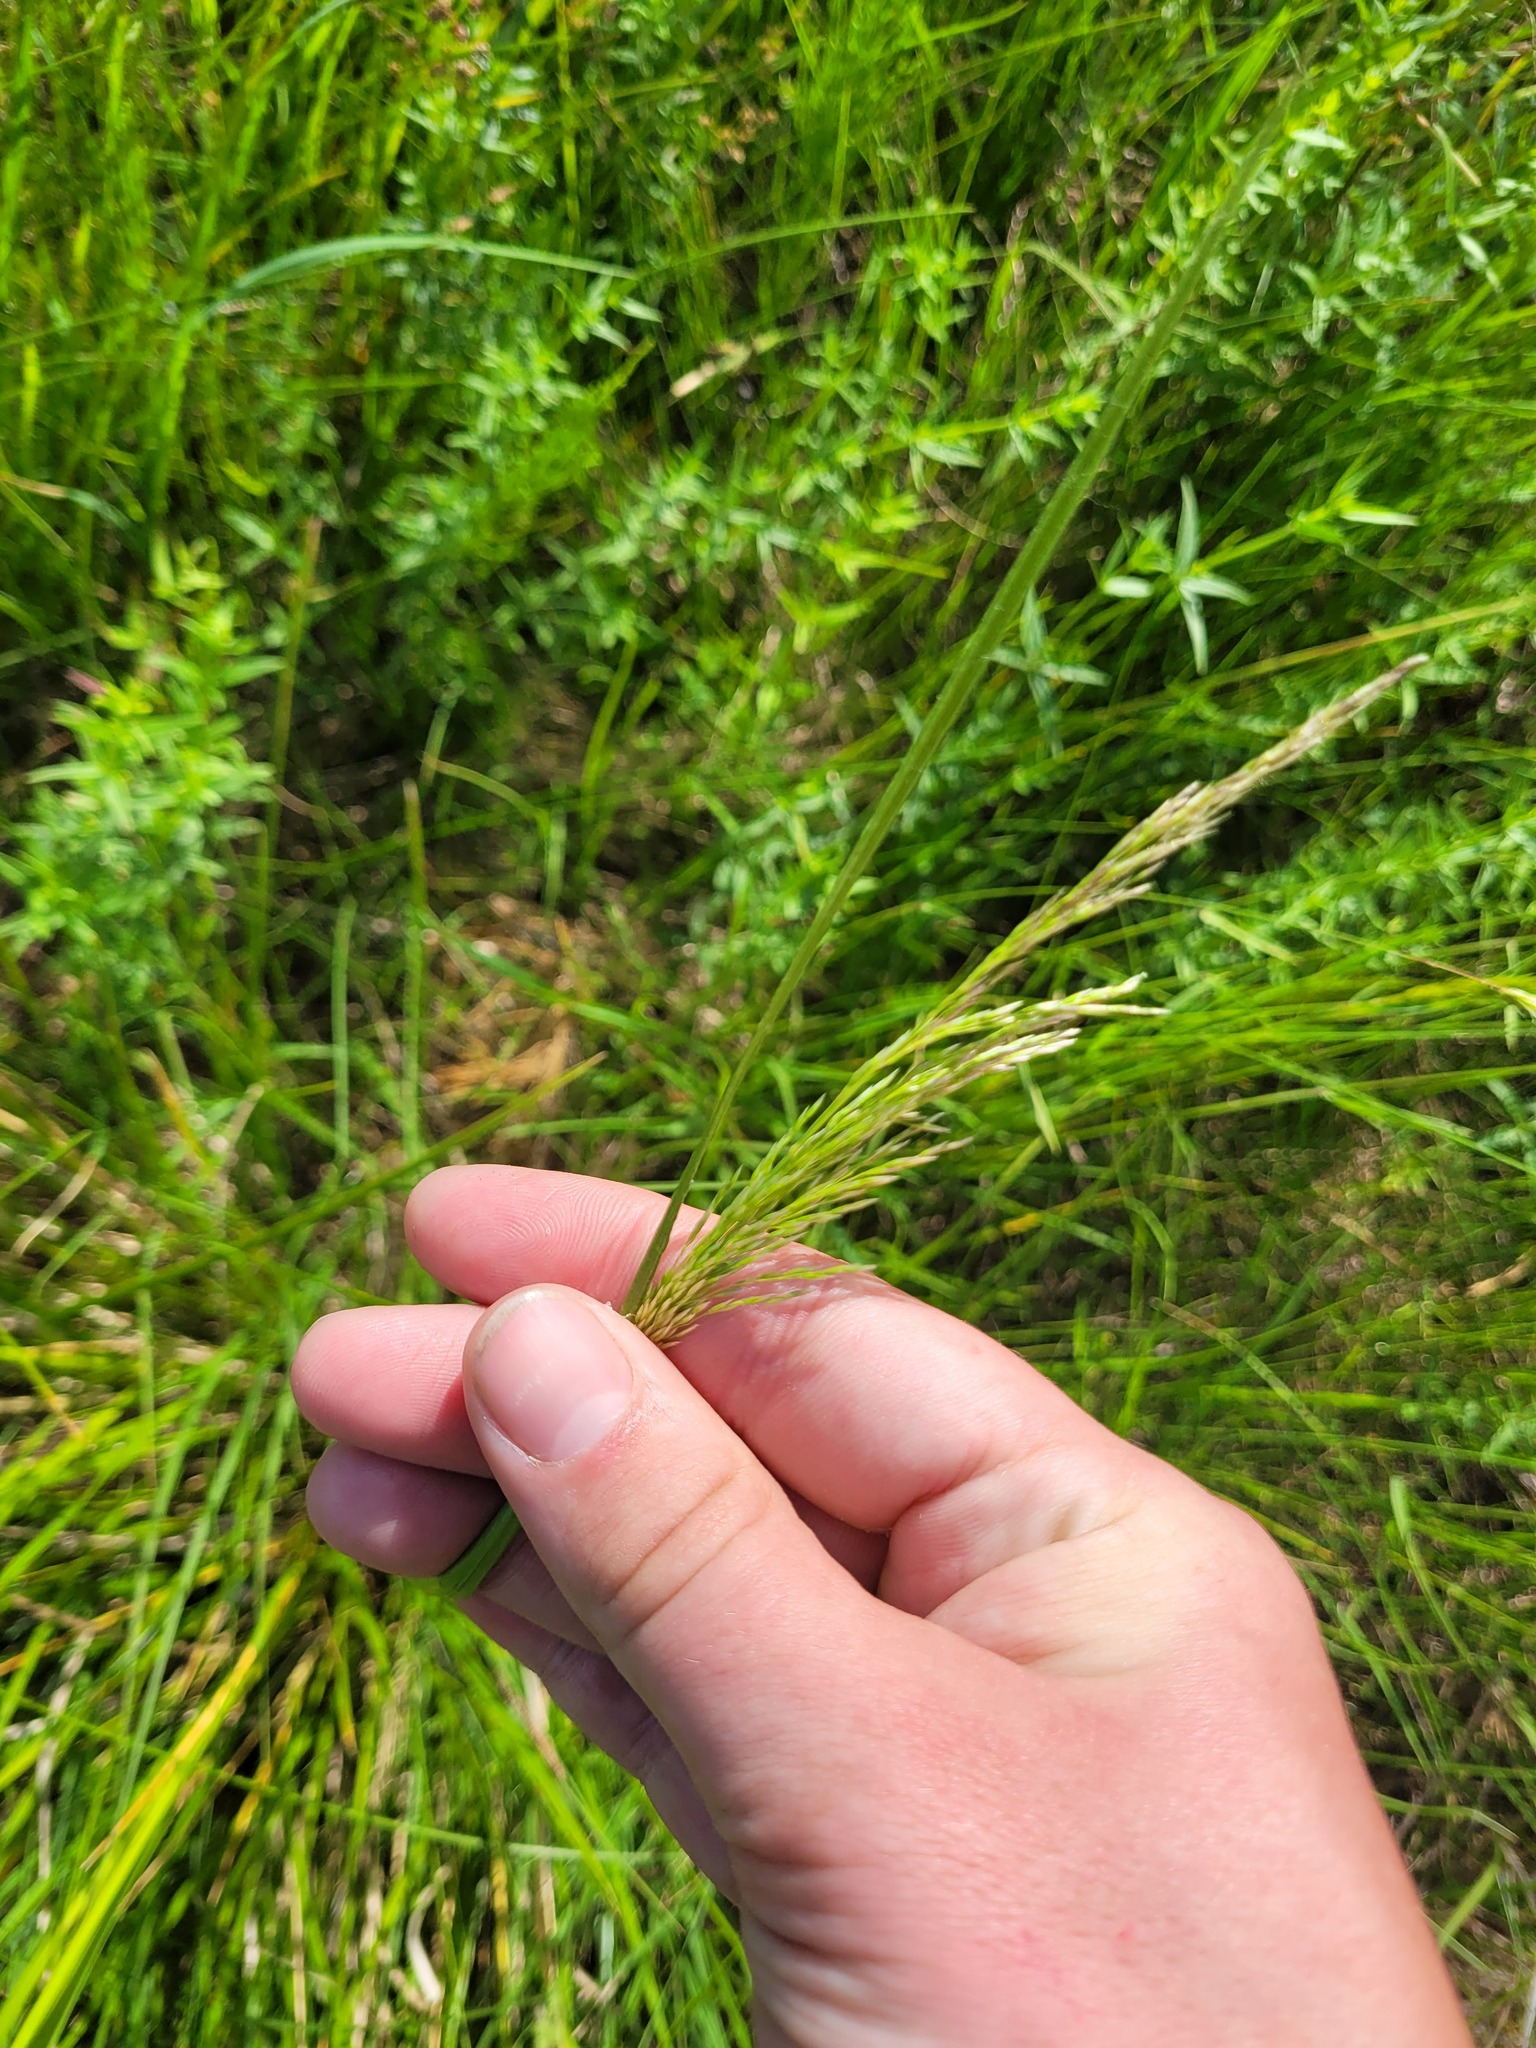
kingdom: Plantae
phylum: Tracheophyta
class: Liliopsida
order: Poales
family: Poaceae
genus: Deschampsia
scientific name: Deschampsia cespitosa
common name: Tufted hair-grass
